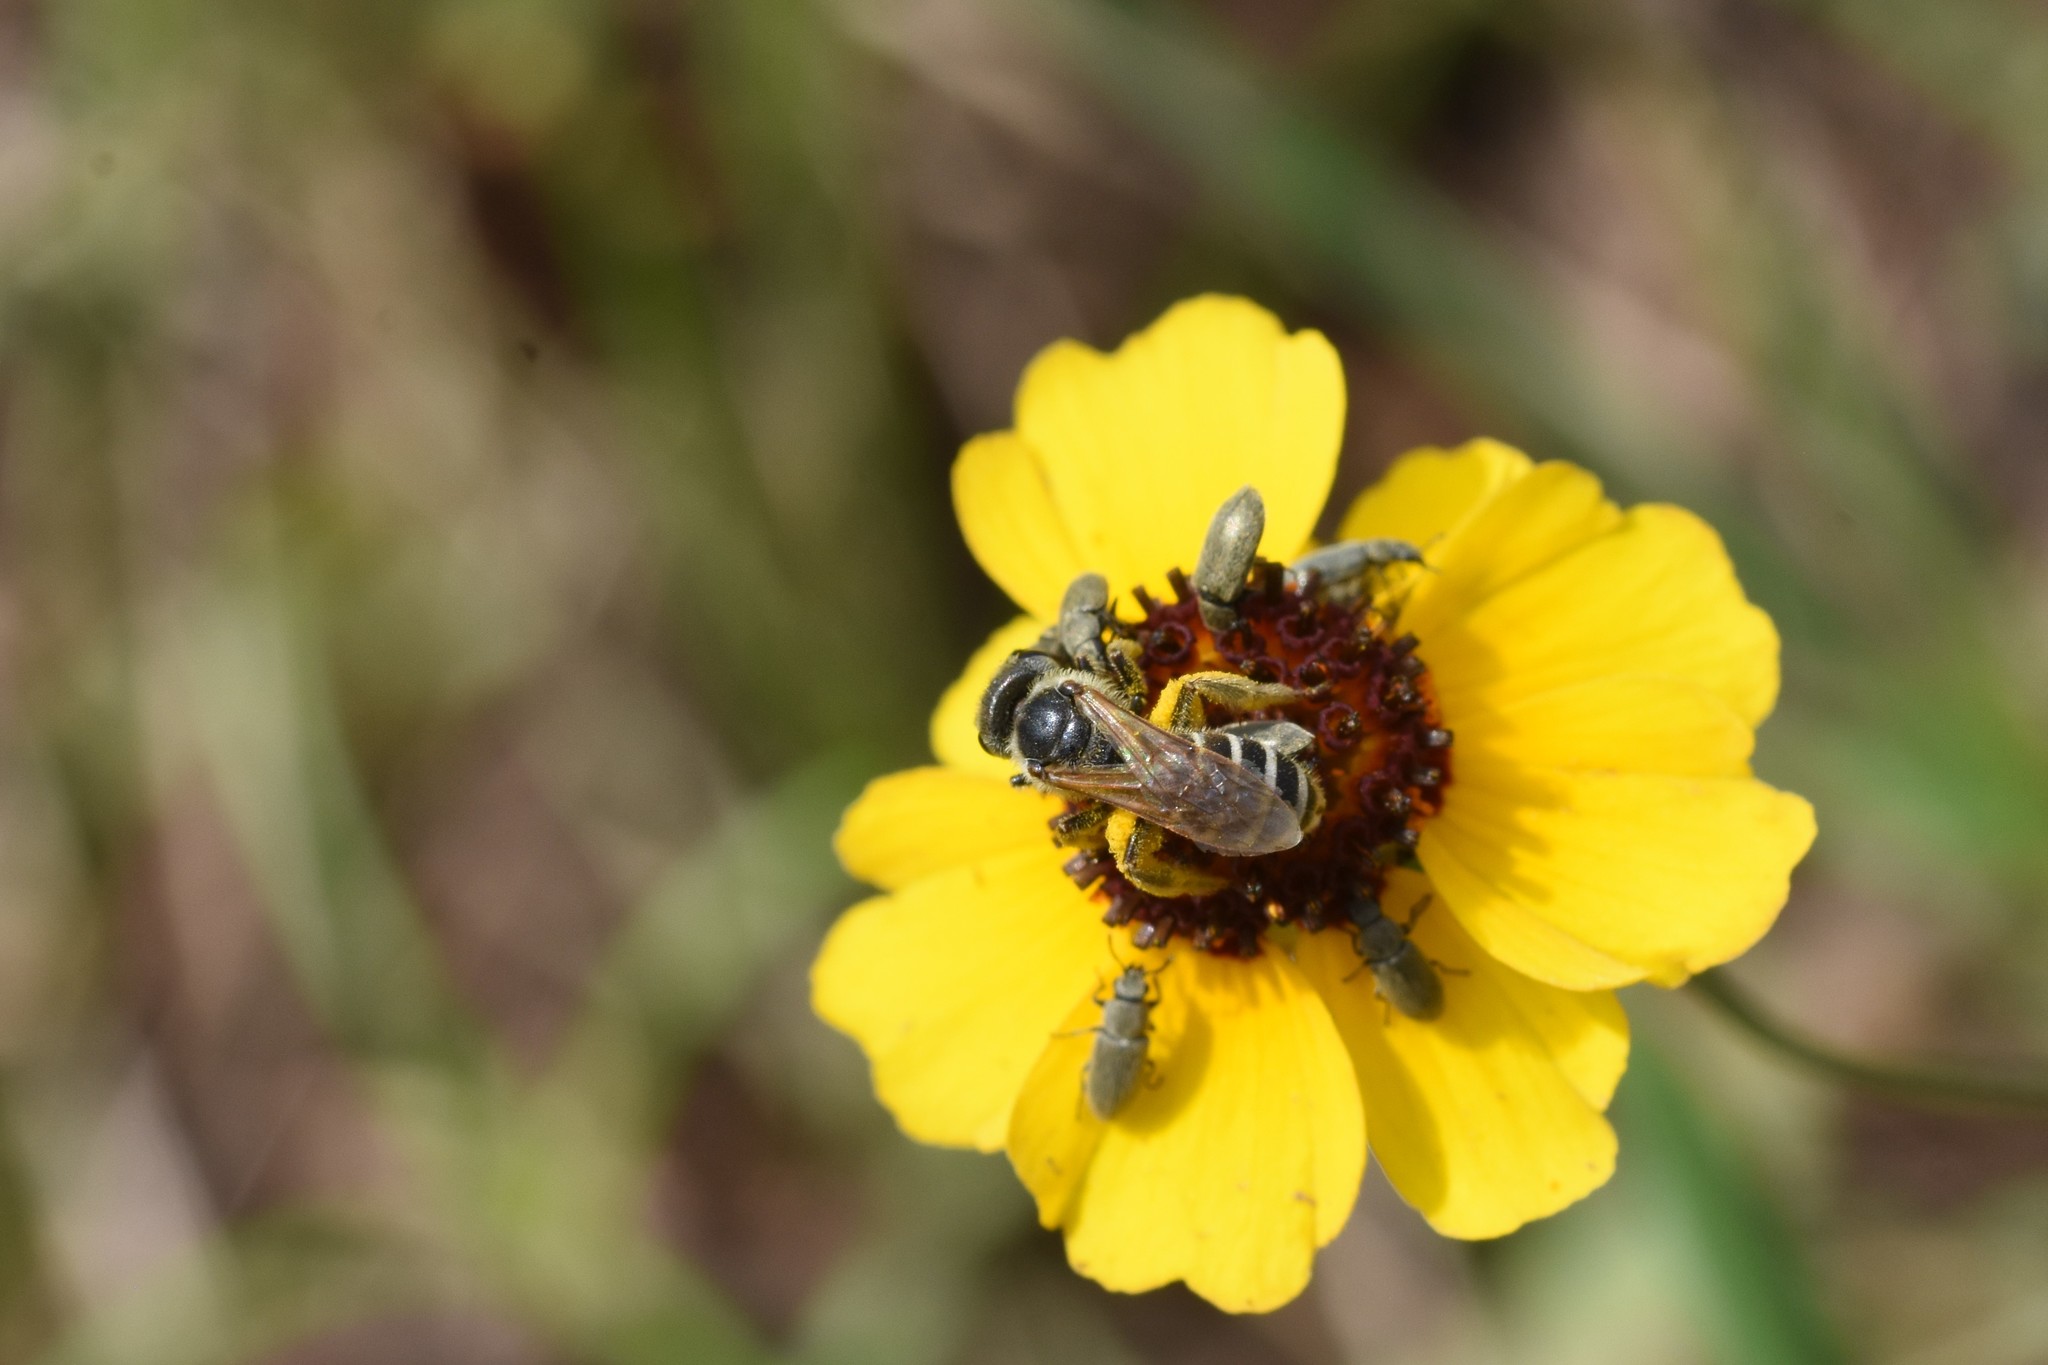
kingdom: Animalia
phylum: Arthropoda
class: Insecta
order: Hymenoptera
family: Halictidae
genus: Halictus
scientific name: Halictus ligatus
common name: Ligated furrow bee
